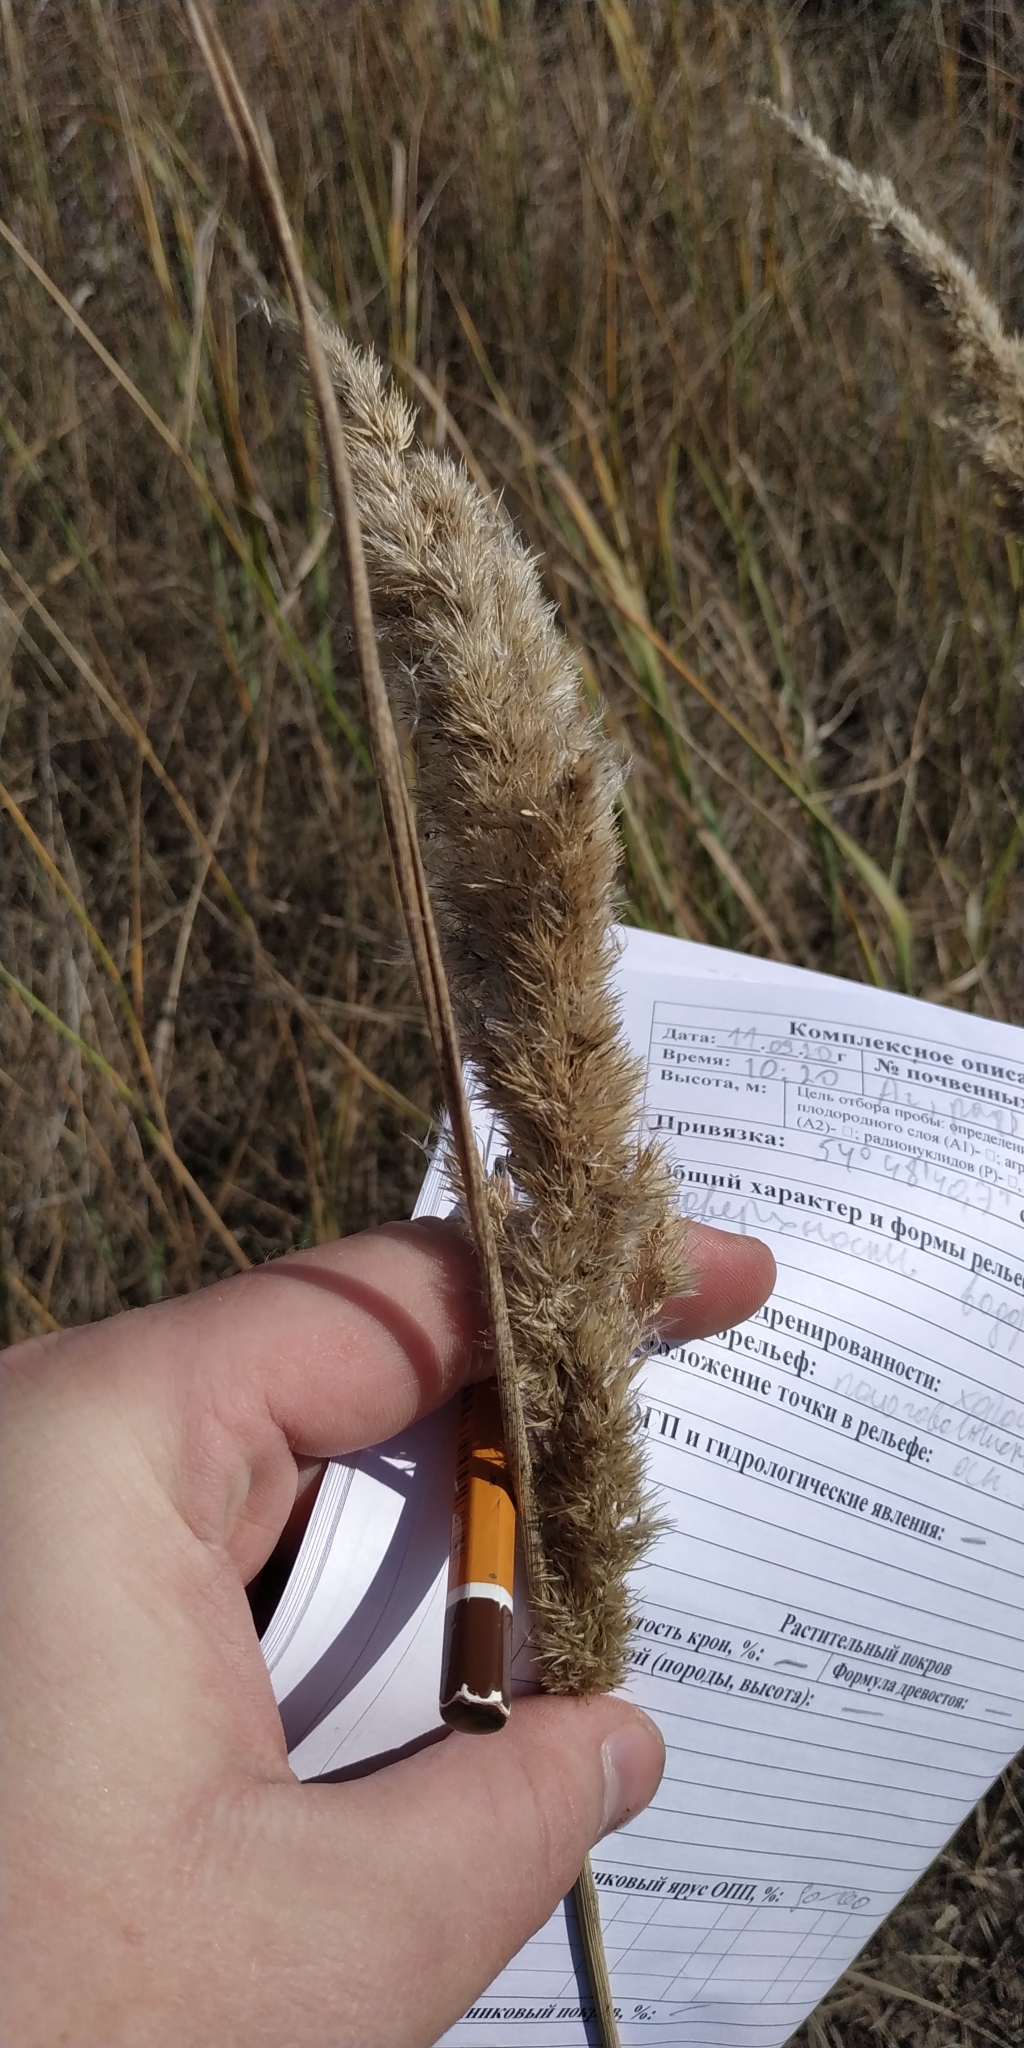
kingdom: Plantae
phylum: Tracheophyta
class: Liliopsida
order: Poales
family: Poaceae
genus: Calamagrostis
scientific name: Calamagrostis epigejos
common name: Wood small-reed
